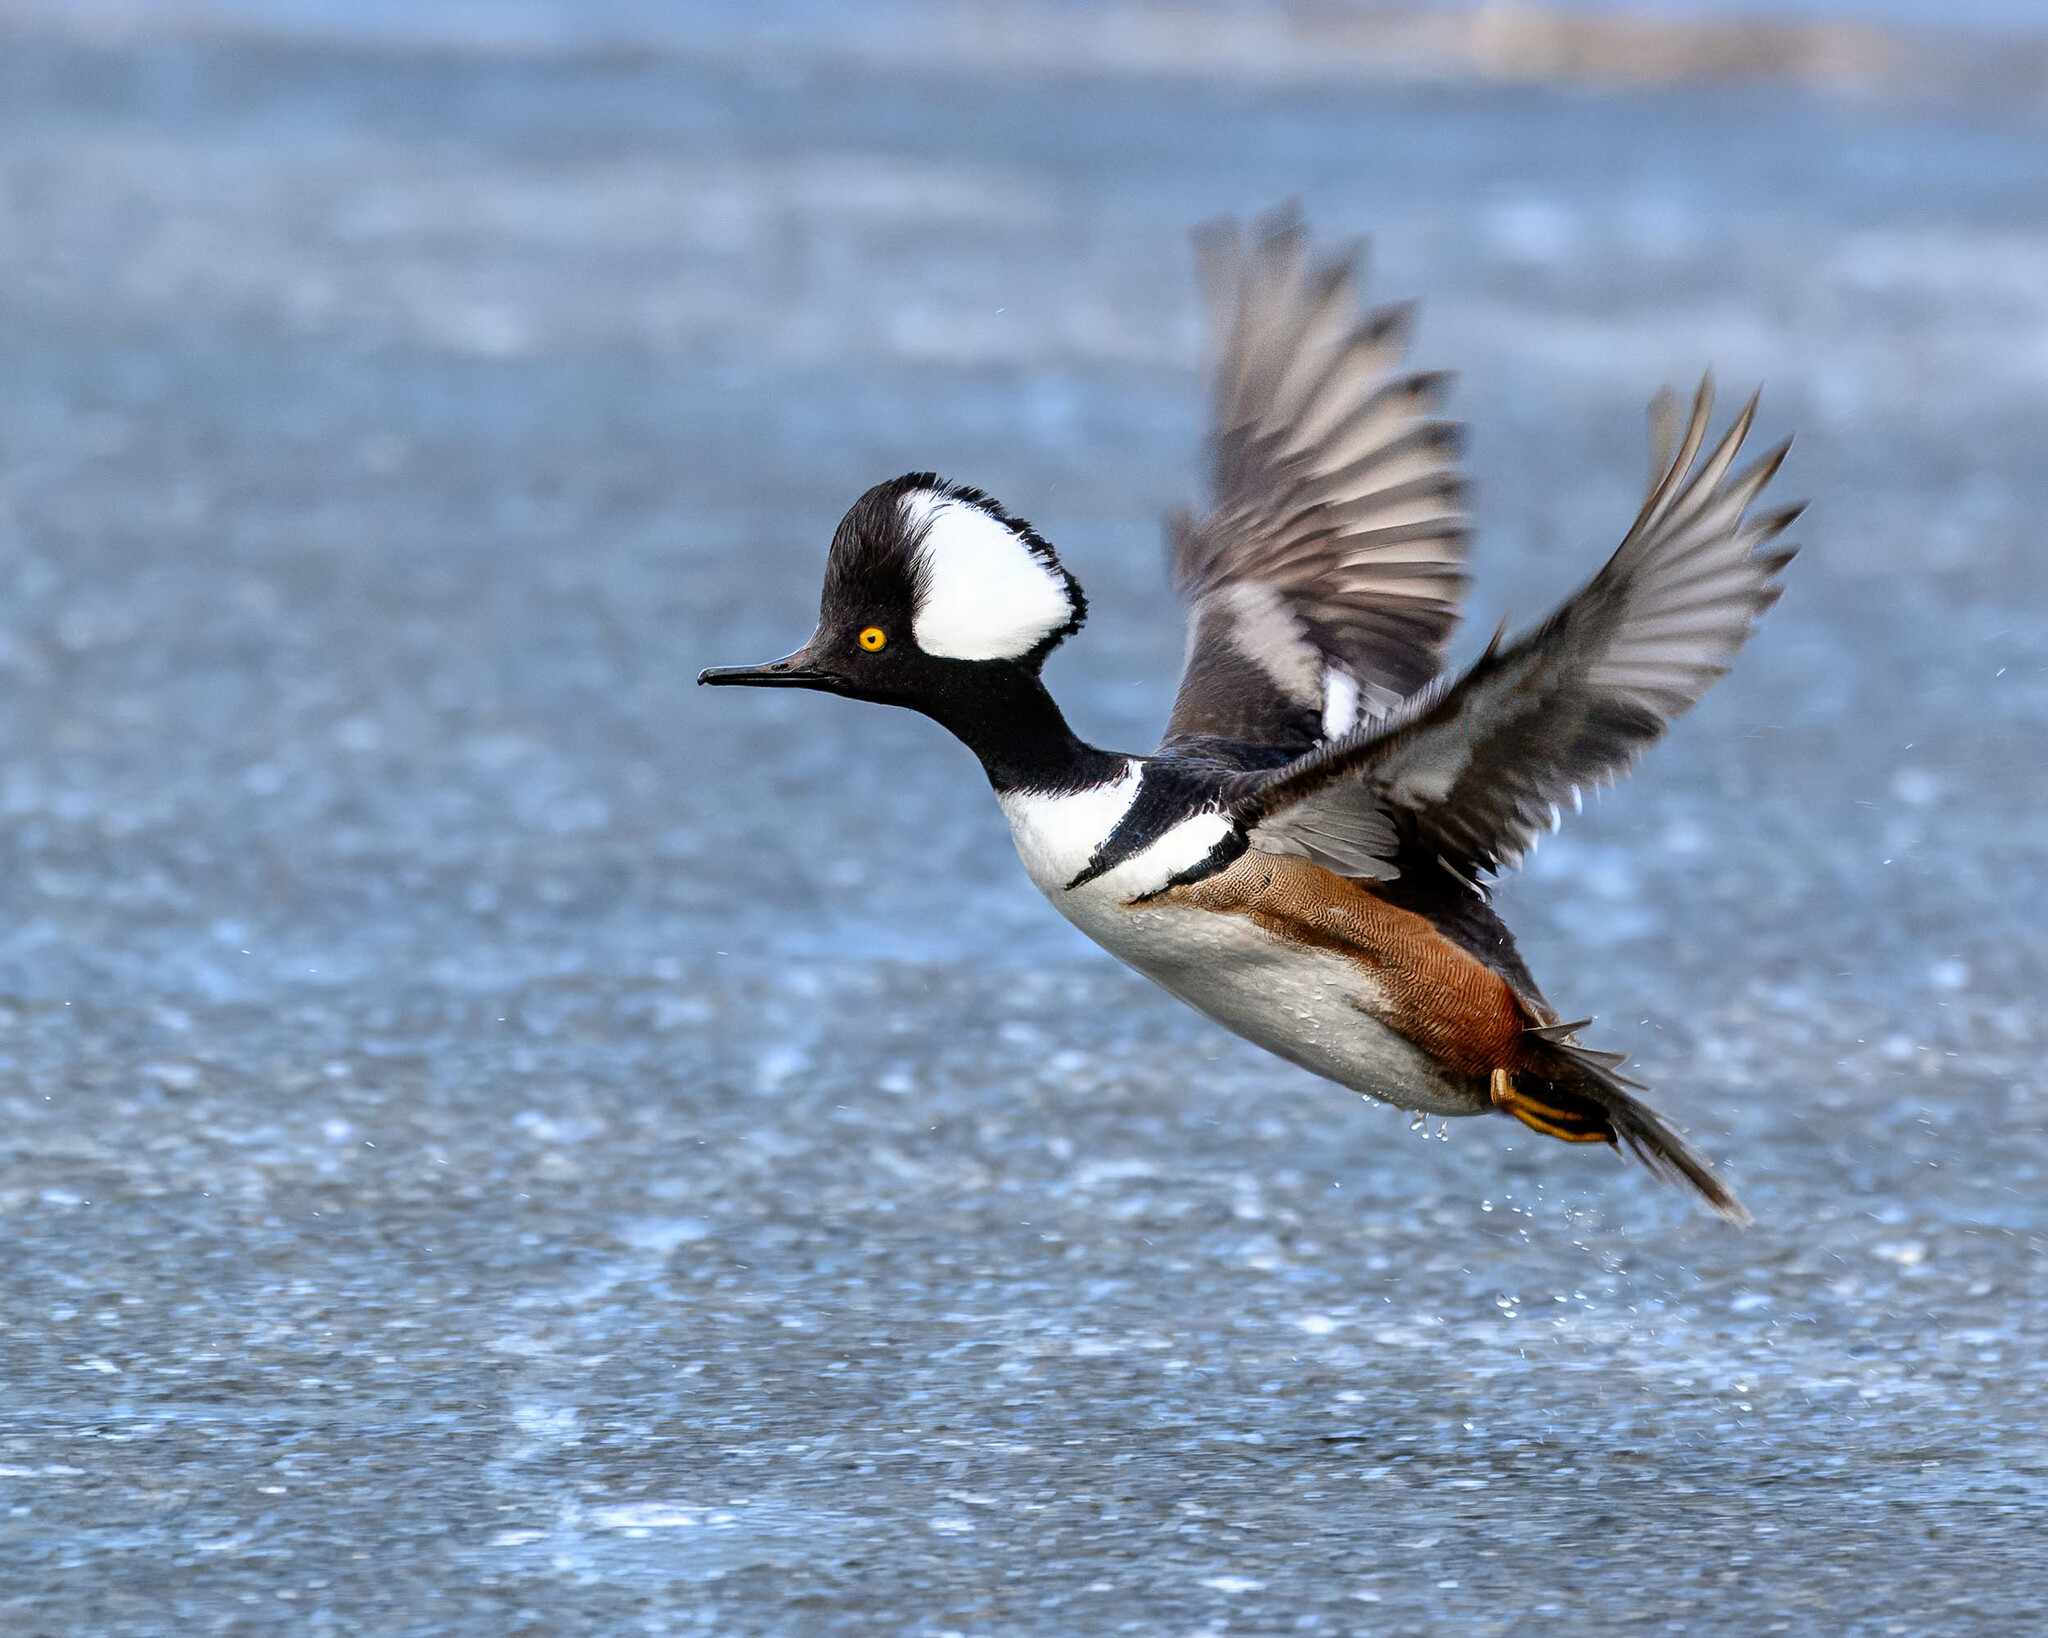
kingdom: Animalia
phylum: Chordata
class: Aves
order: Anseriformes
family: Anatidae
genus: Lophodytes
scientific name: Lophodytes cucullatus
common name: Hooded merganser
